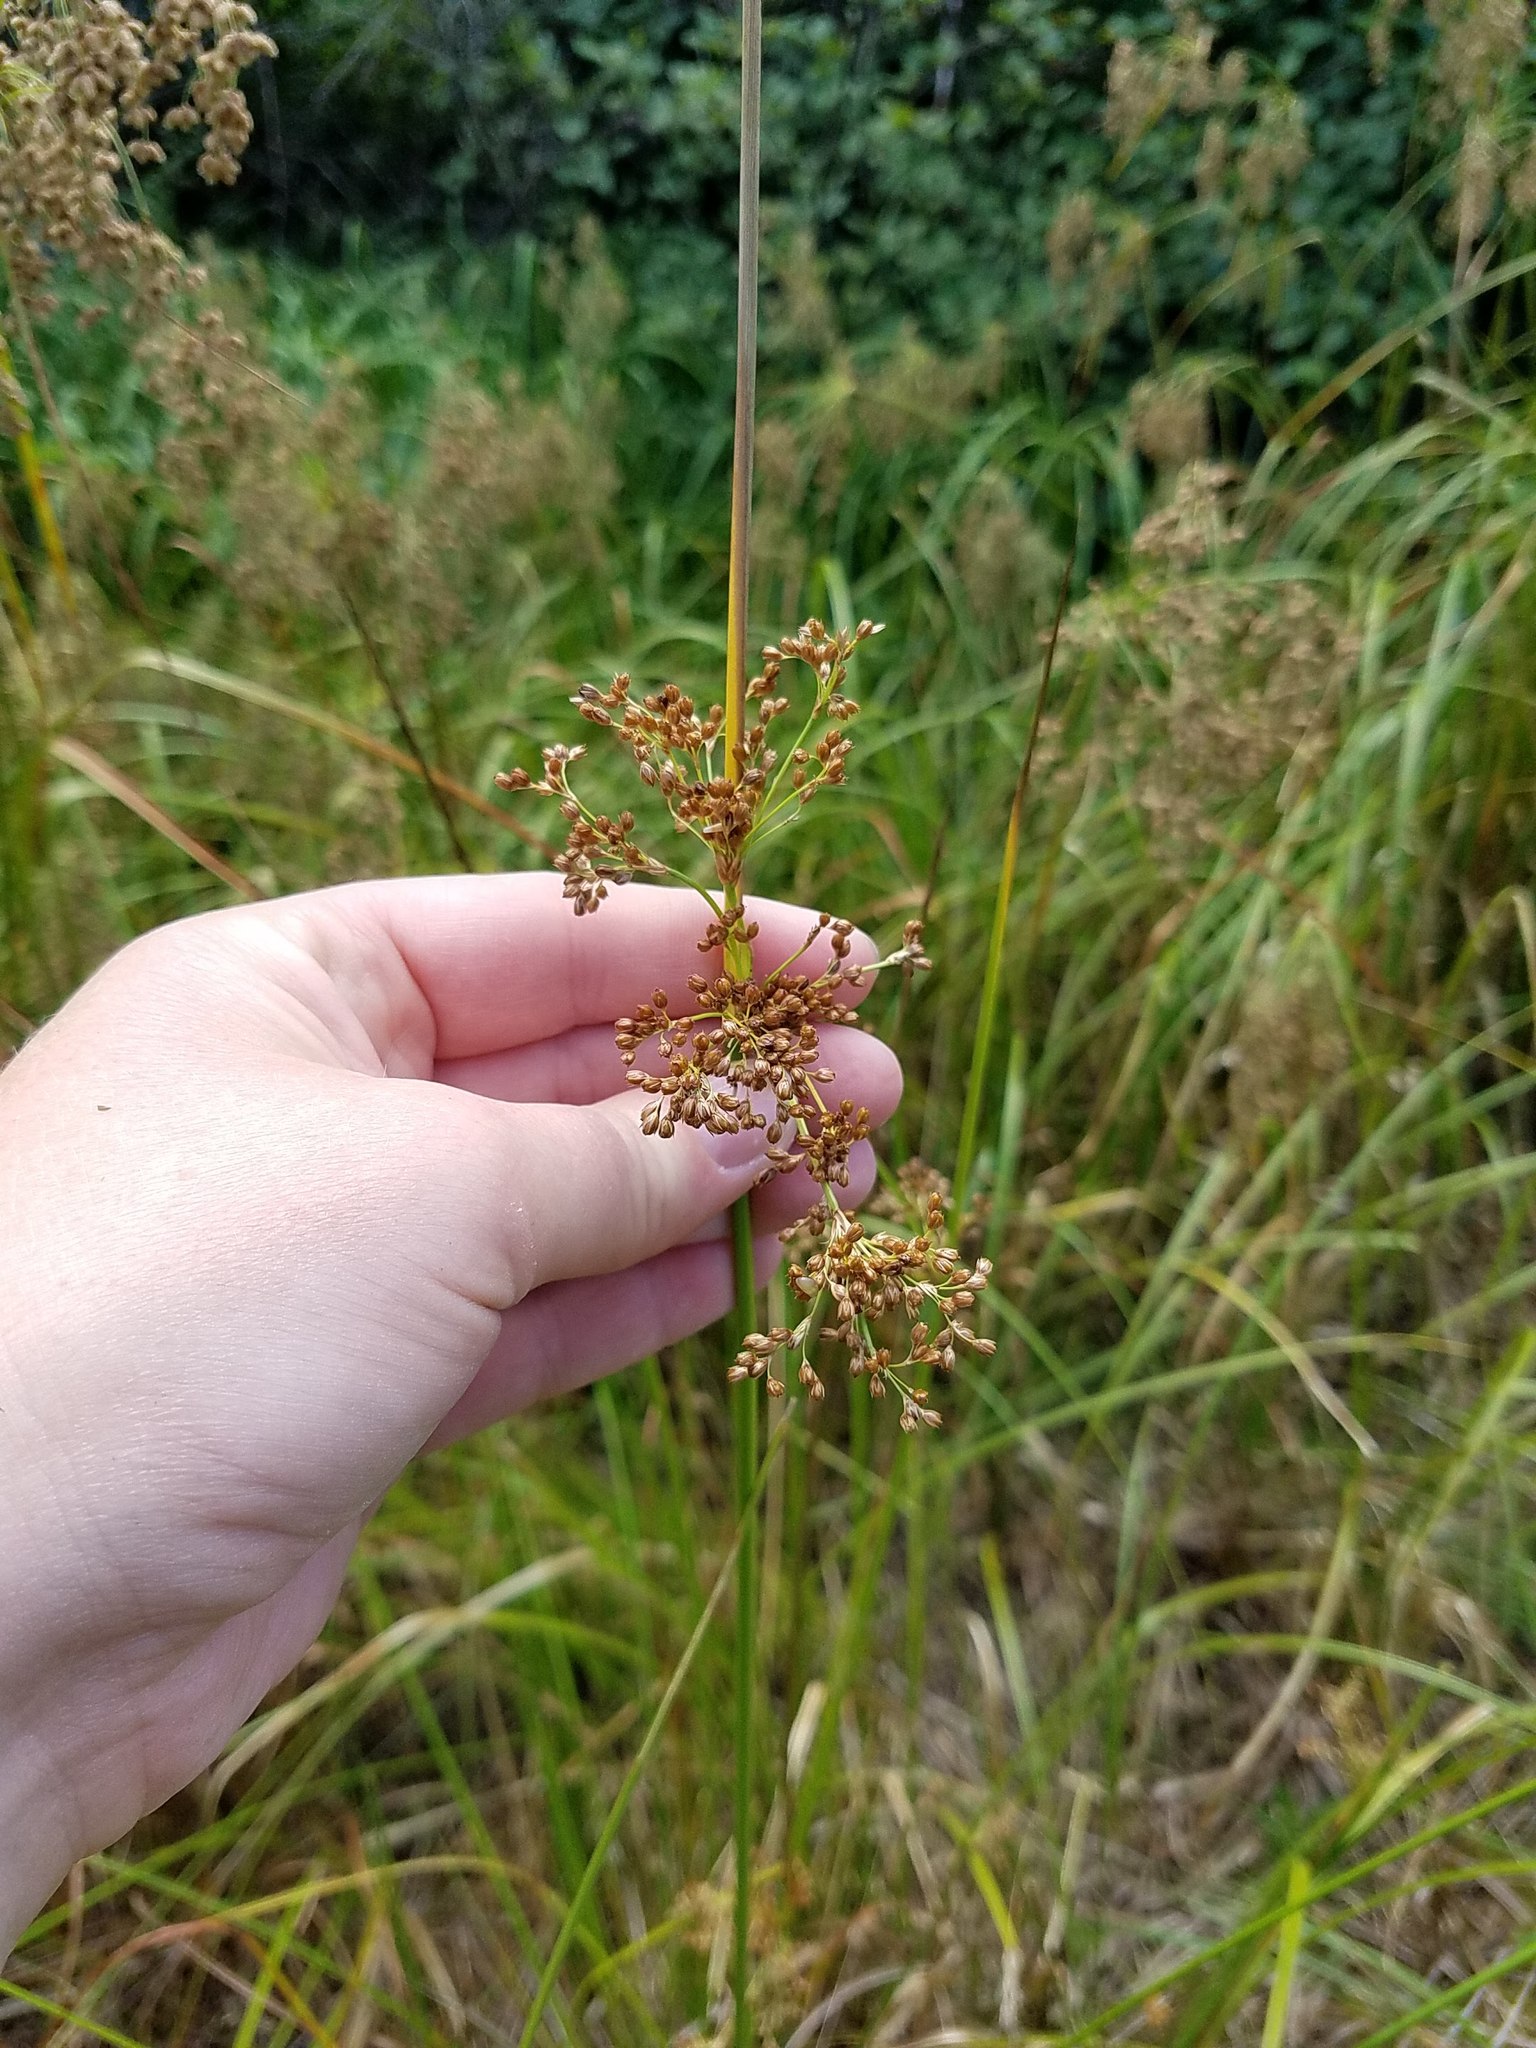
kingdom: Plantae
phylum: Tracheophyta
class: Liliopsida
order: Poales
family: Juncaceae
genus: Juncus
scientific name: Juncus effusus
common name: Soft rush
